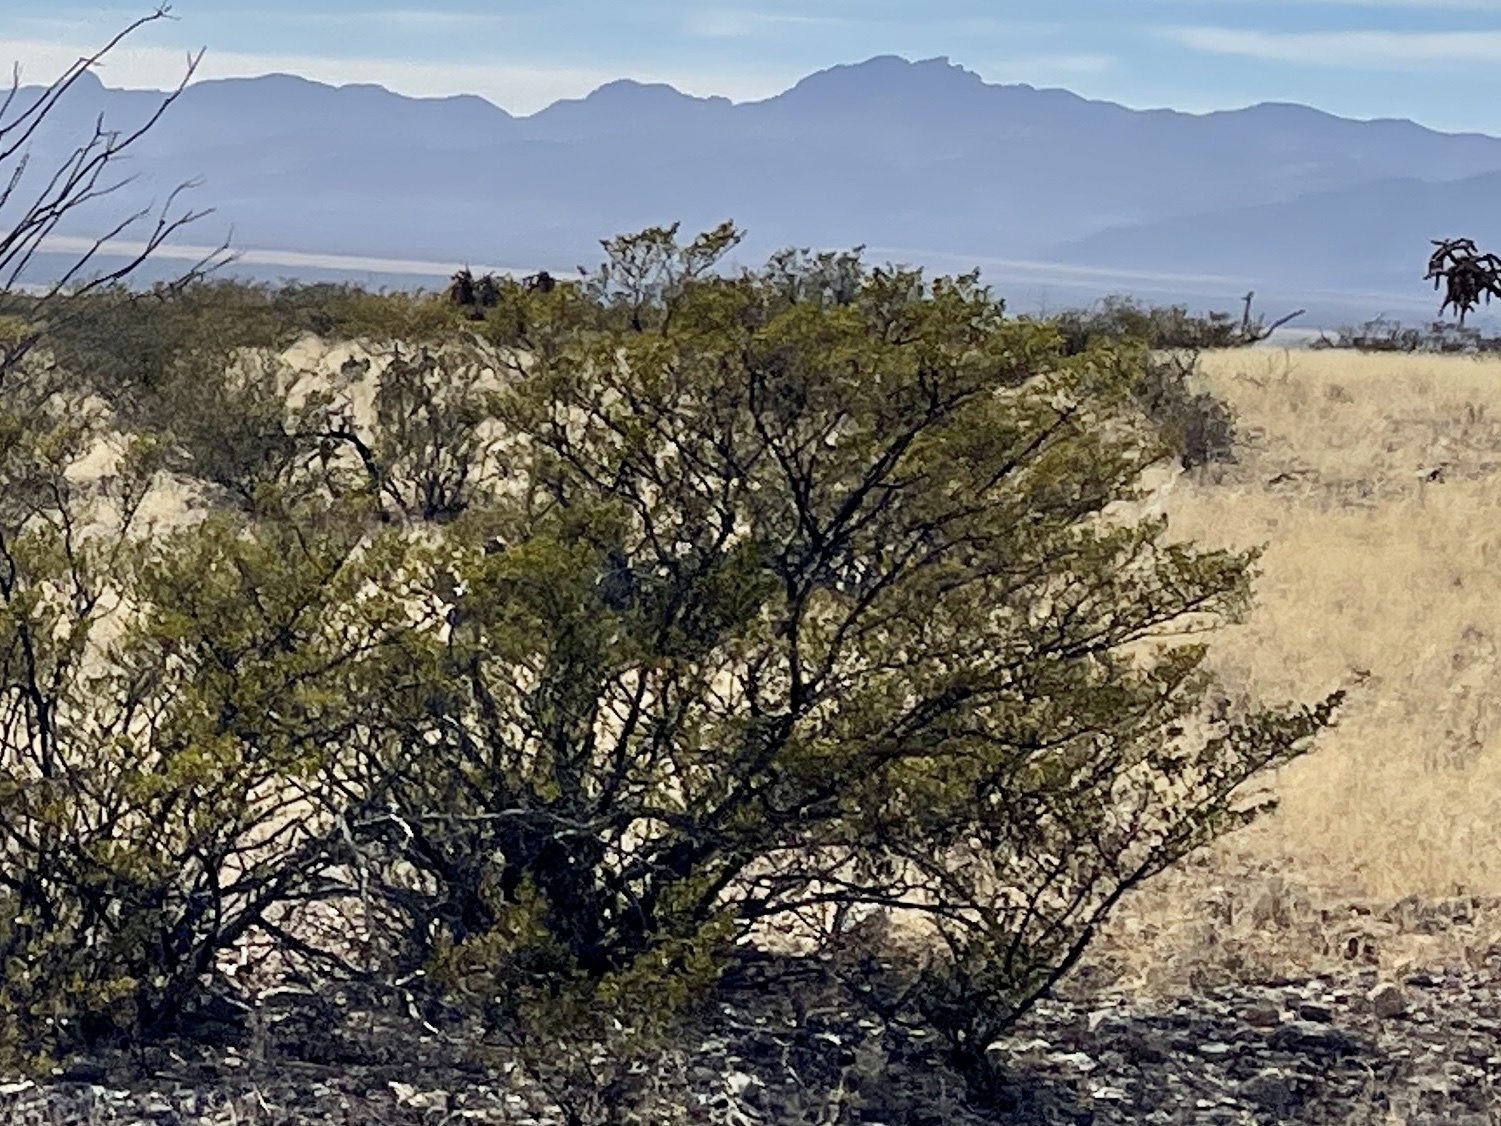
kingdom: Plantae
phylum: Tracheophyta
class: Magnoliopsida
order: Zygophyllales
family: Zygophyllaceae
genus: Larrea
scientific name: Larrea tridentata
